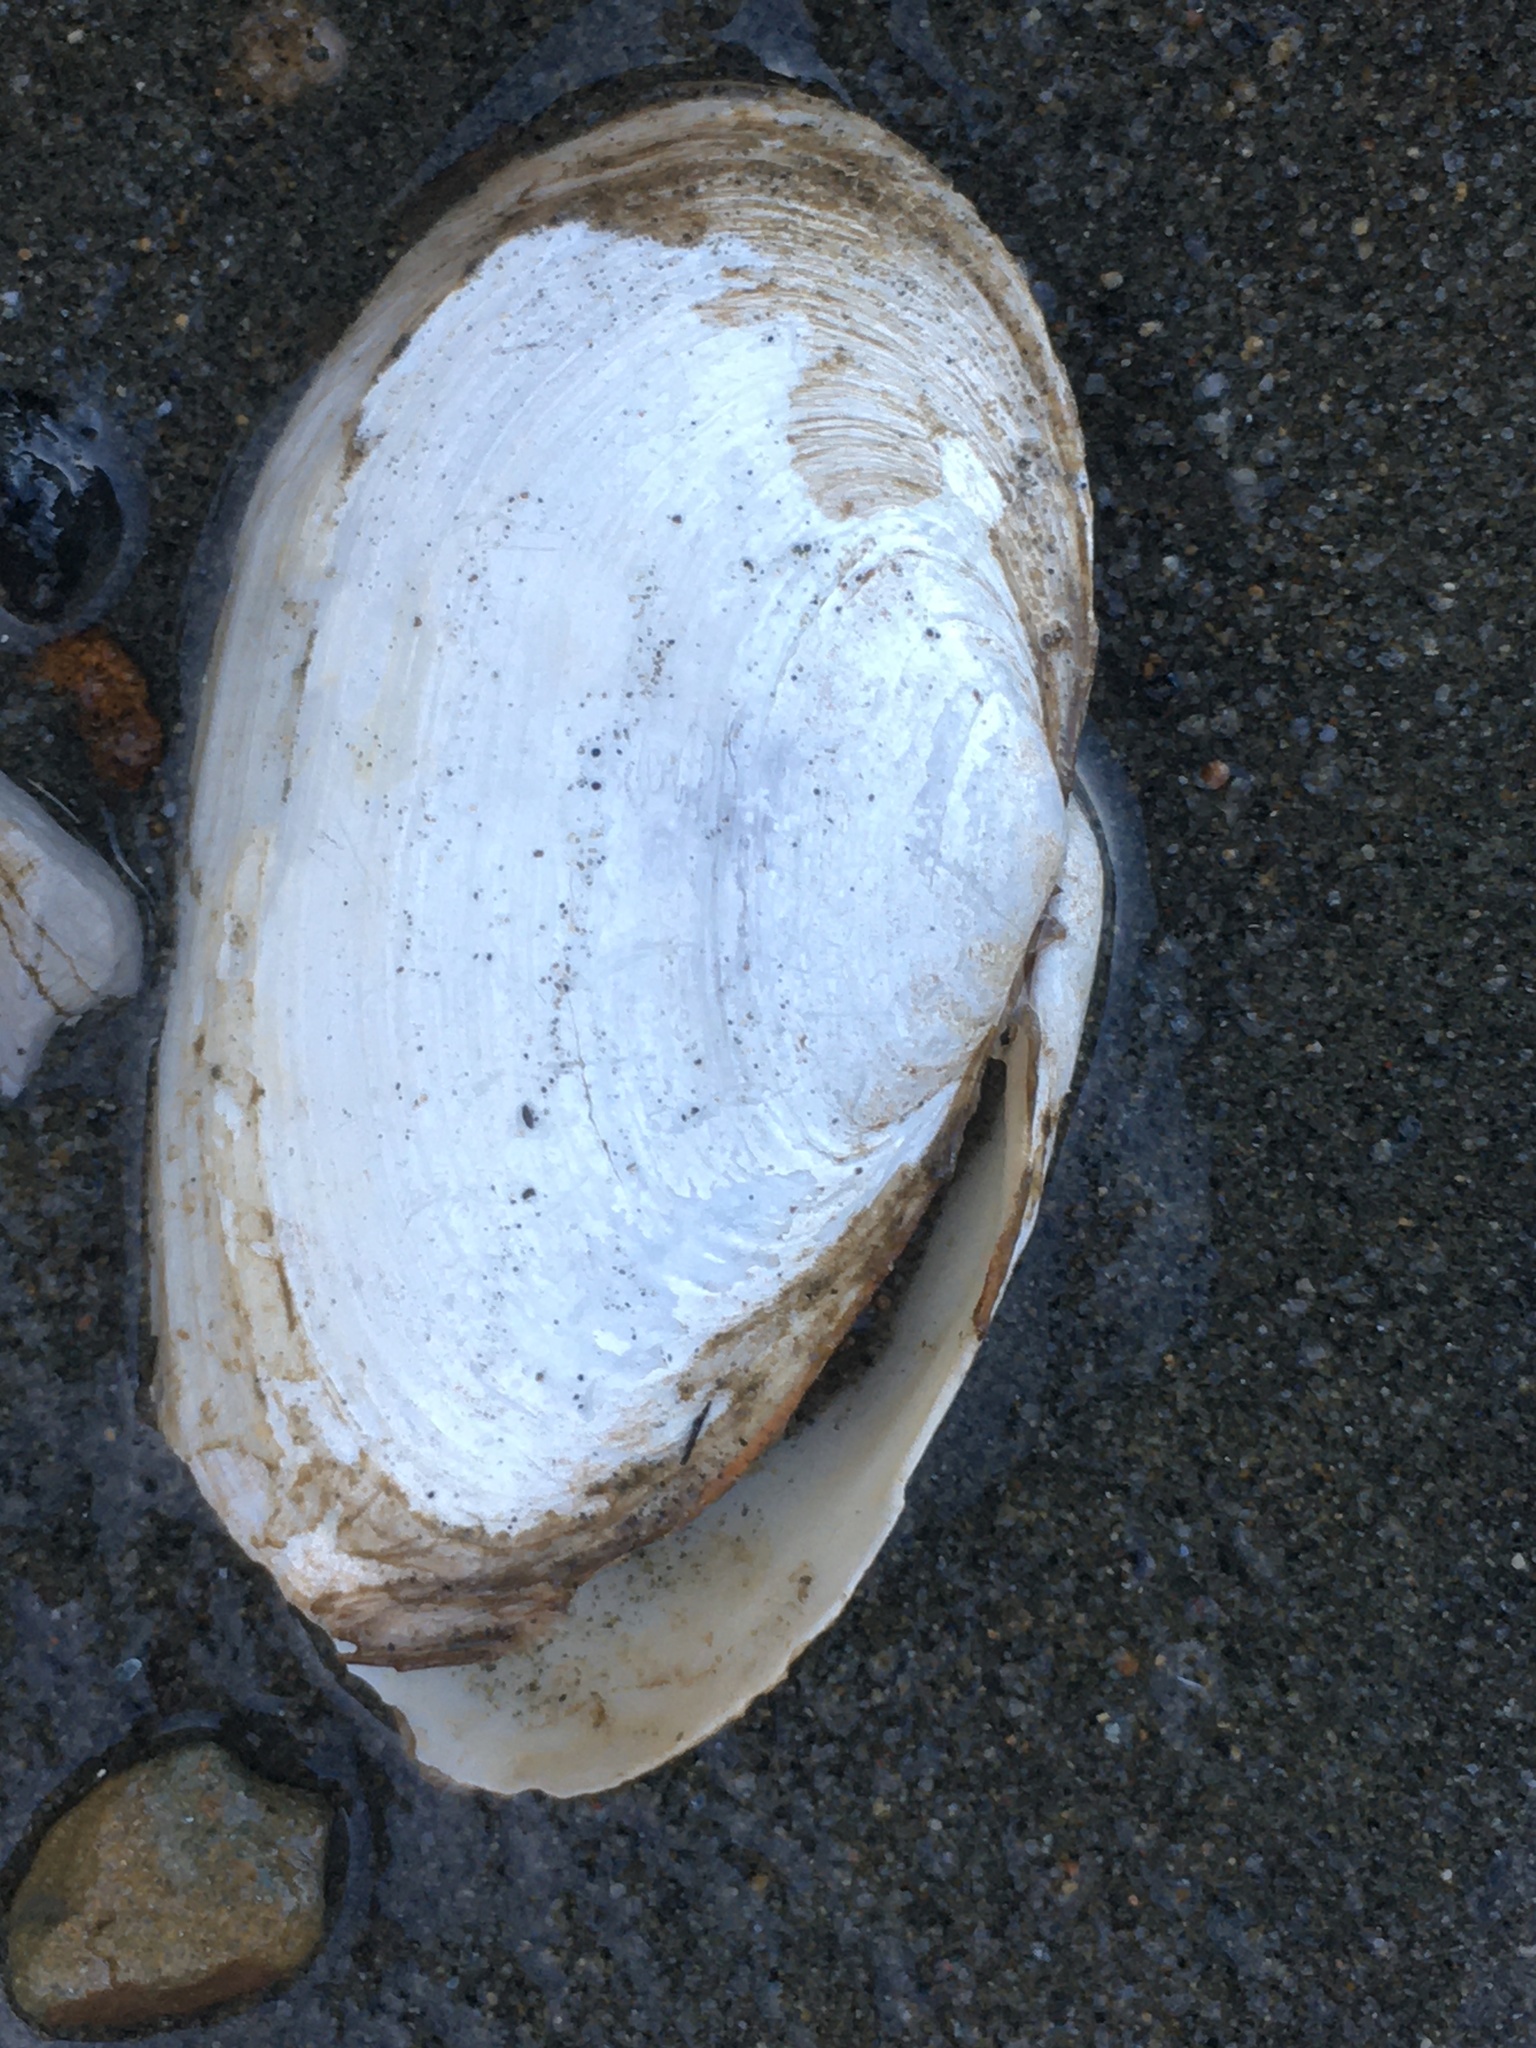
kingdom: Animalia
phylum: Mollusca
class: Bivalvia
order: Myida
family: Myidae
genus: Mya
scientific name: Mya arenaria
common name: Soft-shelled clam
